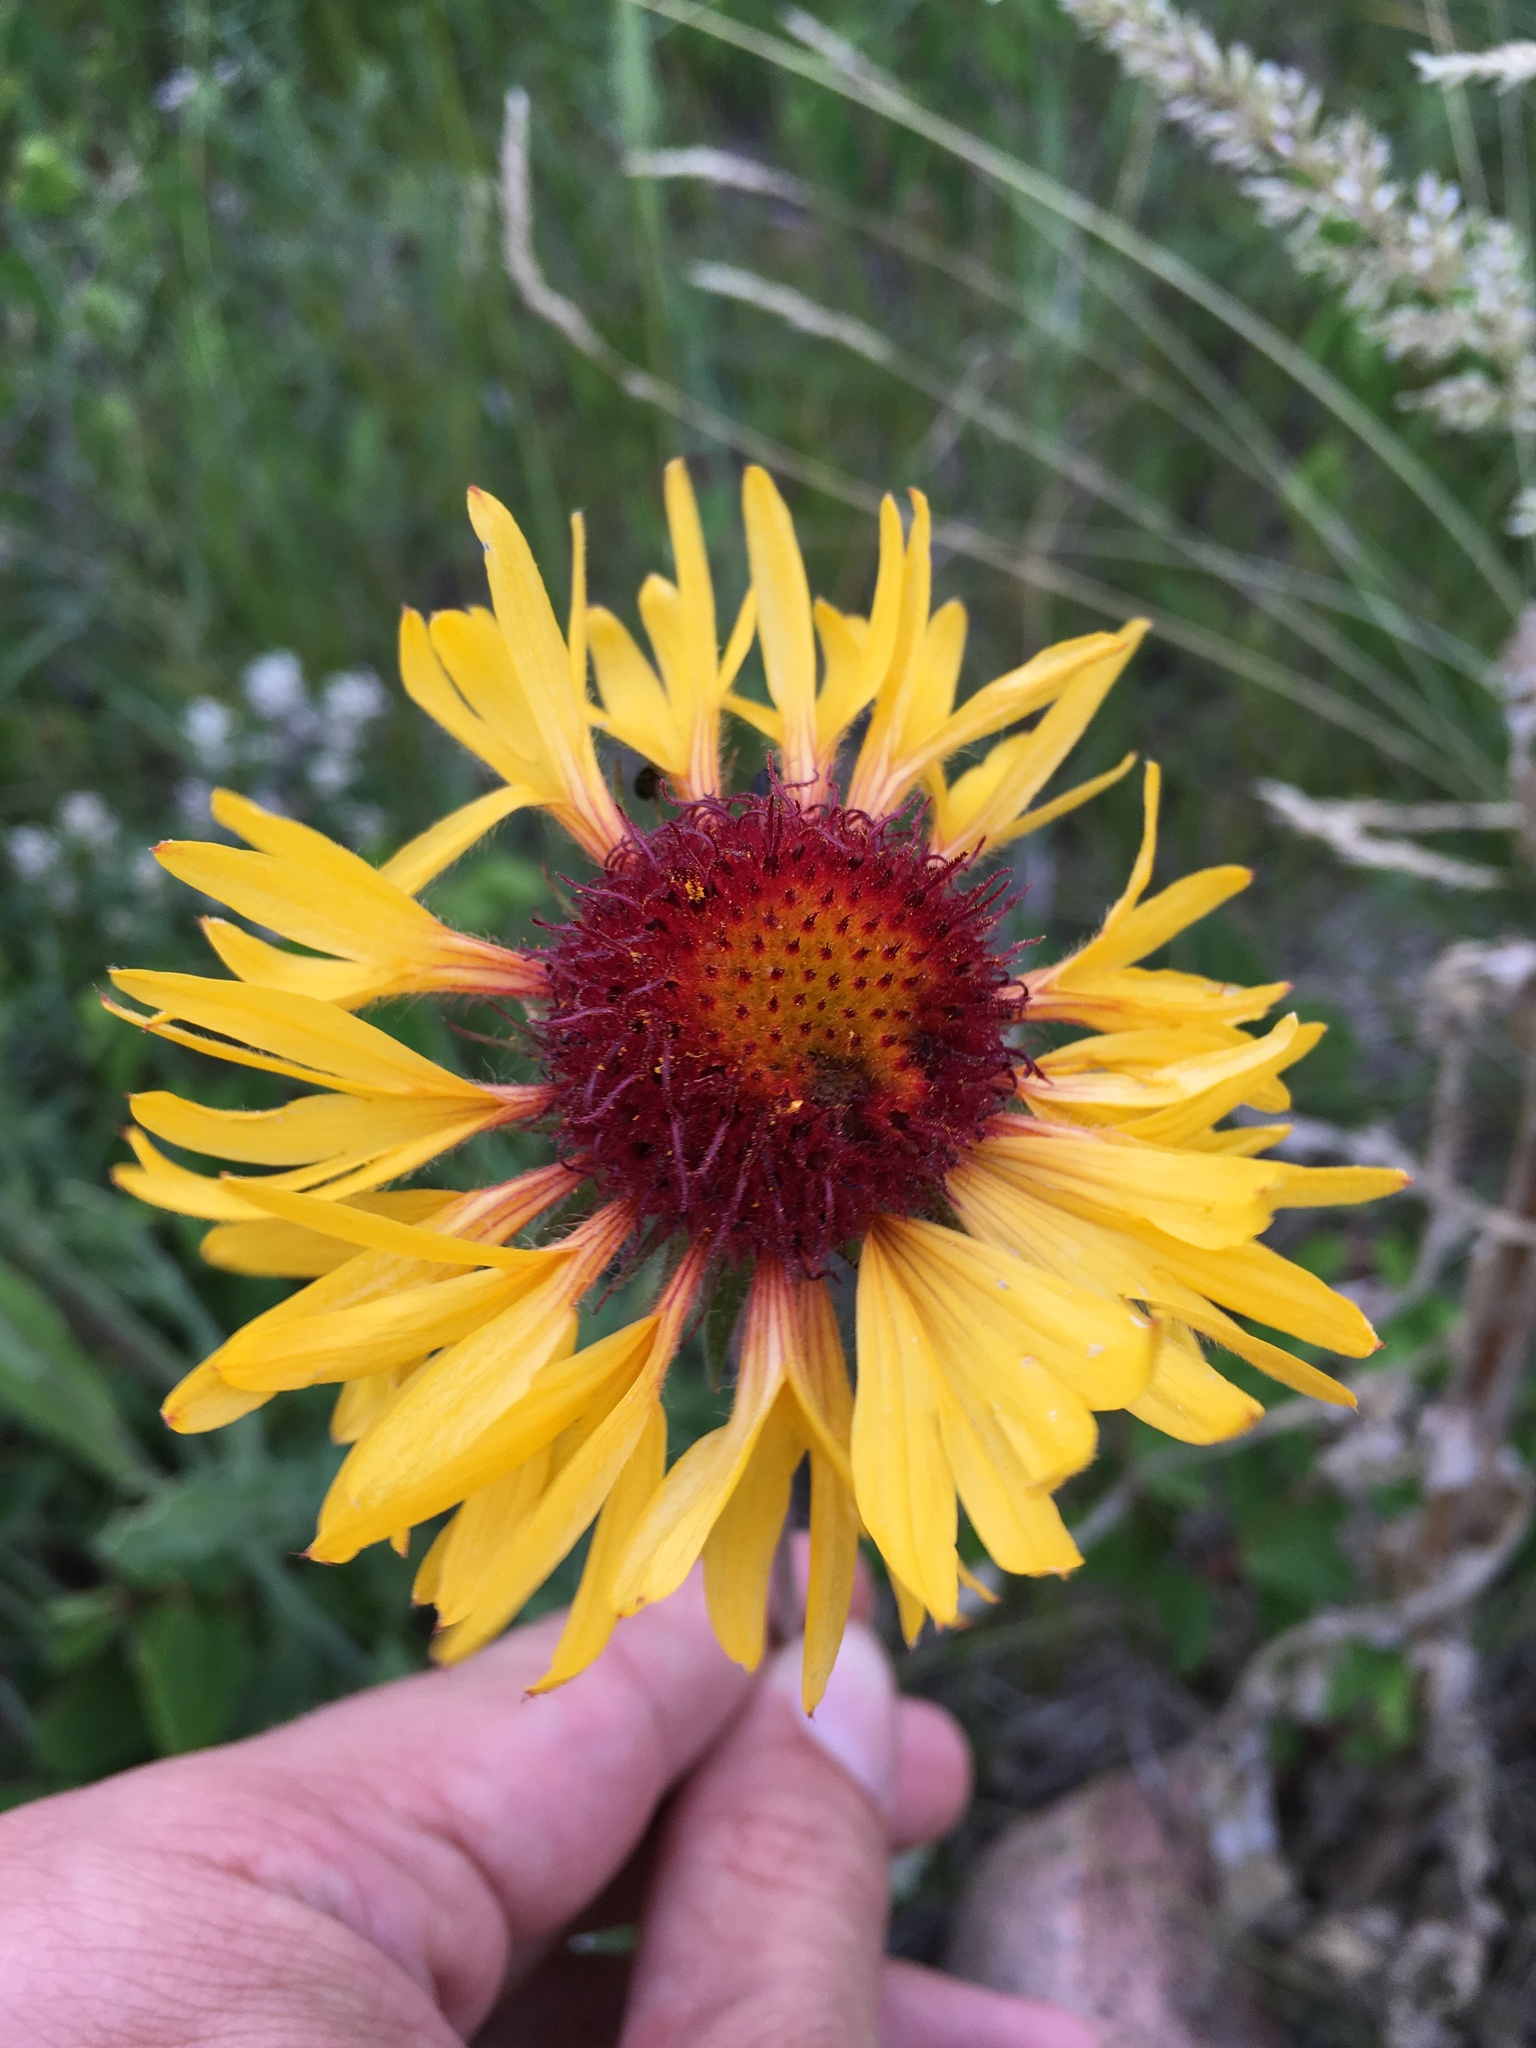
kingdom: Plantae
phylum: Tracheophyta
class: Magnoliopsida
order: Asterales
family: Asteraceae
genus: Gaillardia
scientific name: Gaillardia aristata
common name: Blanket-flower
